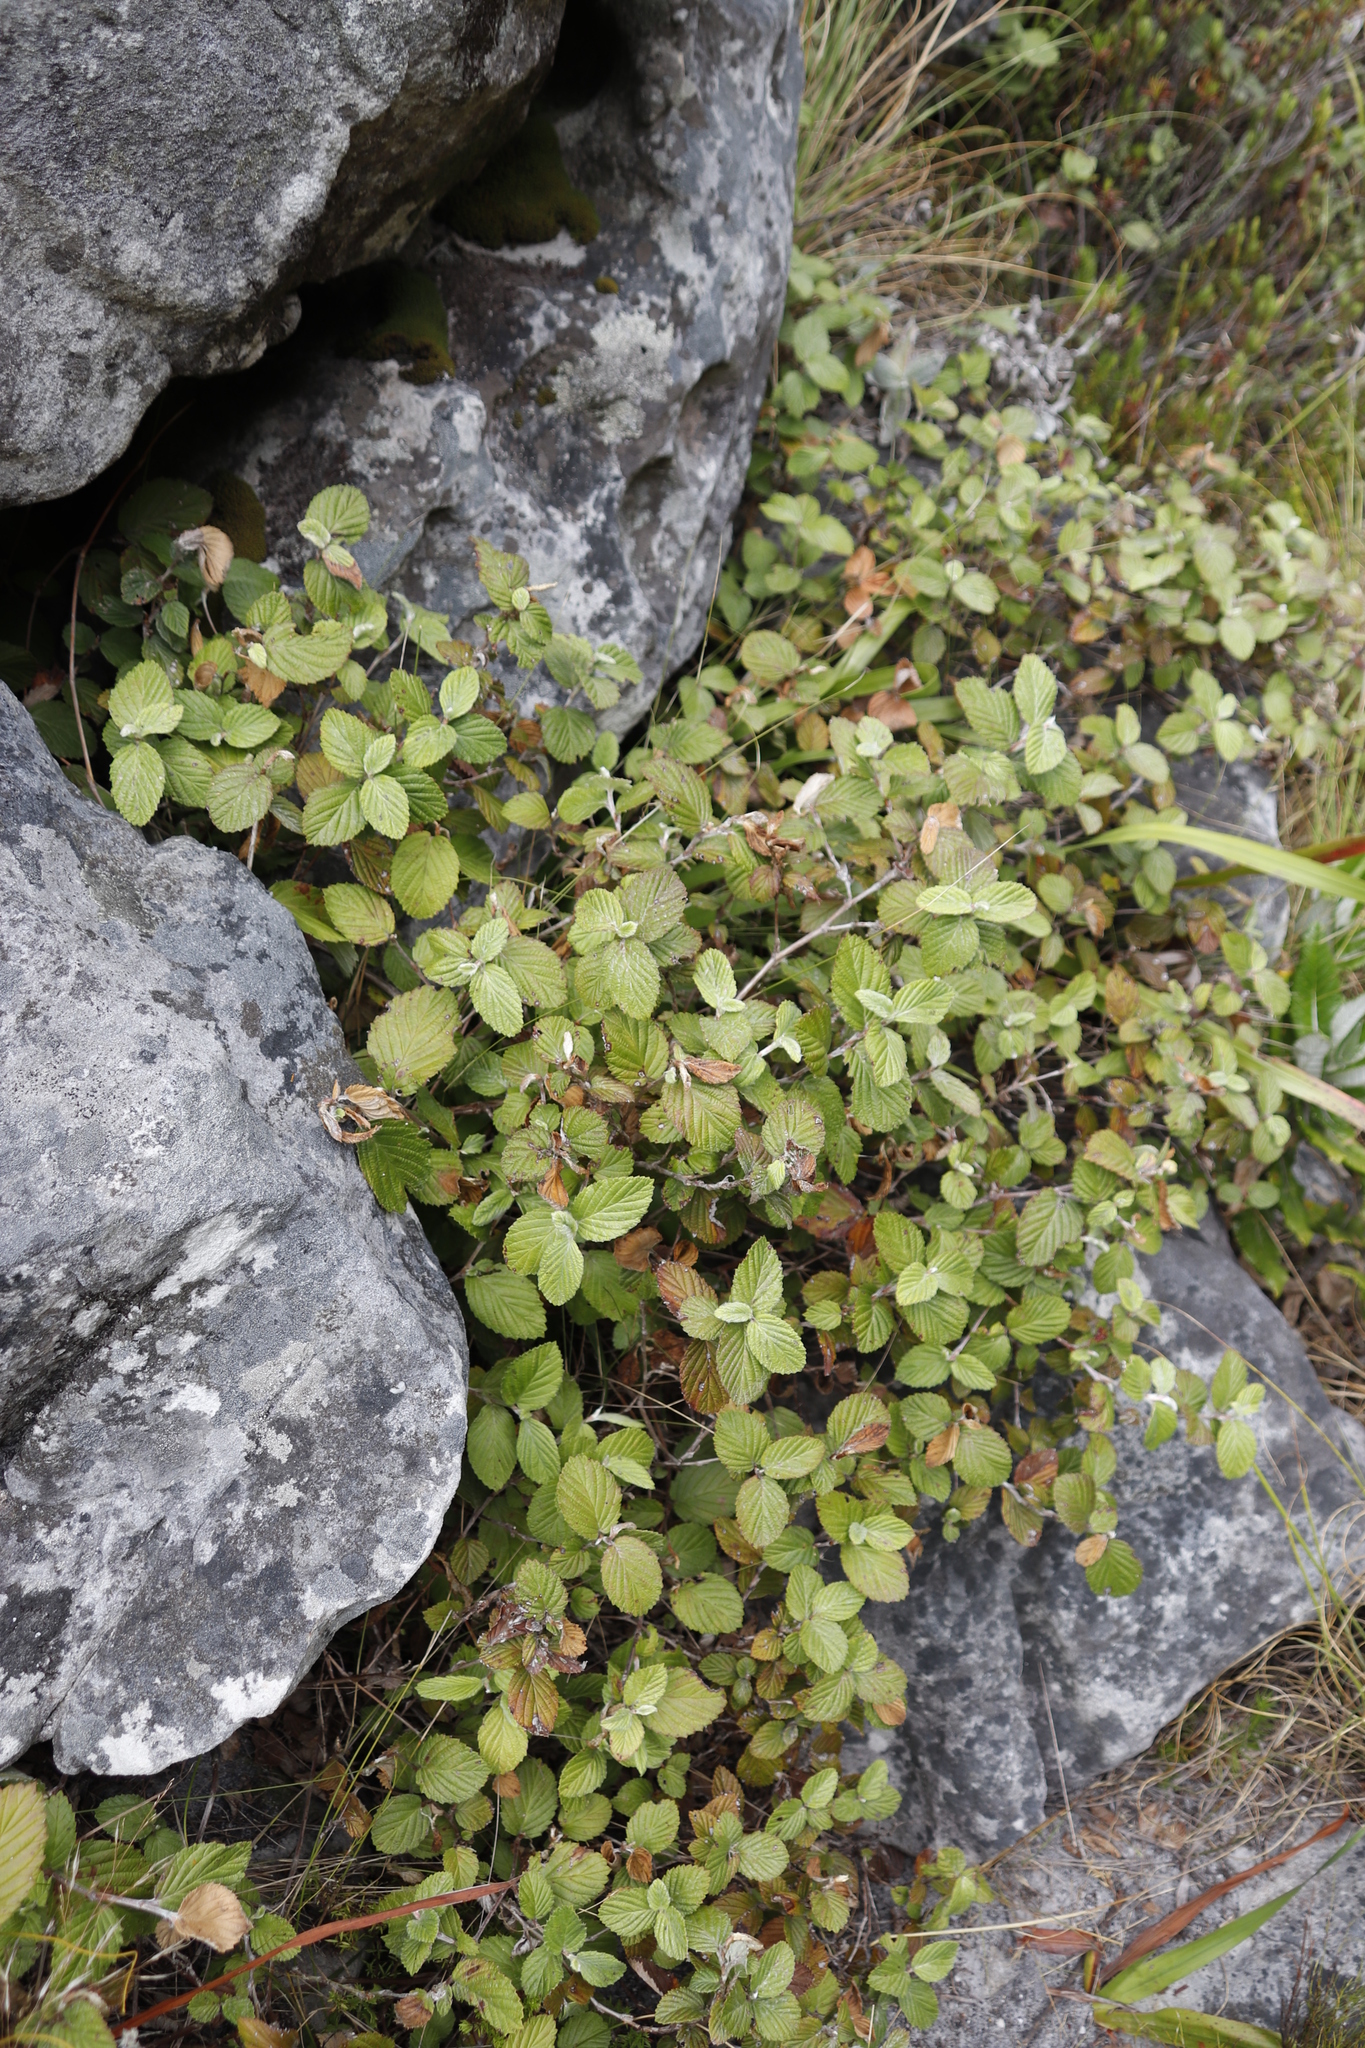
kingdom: Plantae
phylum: Tracheophyta
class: Magnoliopsida
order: Rosales
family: Rosaceae
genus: Cliffortia
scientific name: Cliffortia odorata
